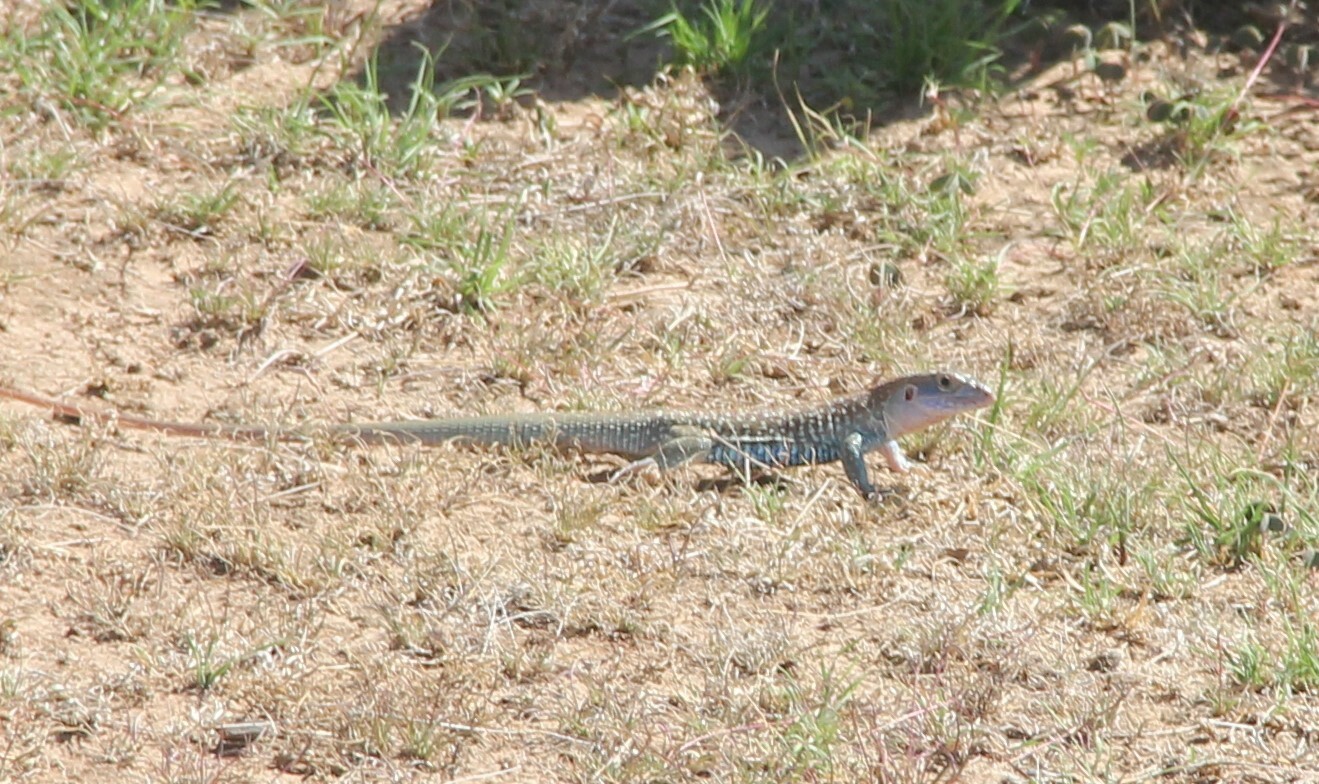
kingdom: Animalia
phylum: Chordata
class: Squamata
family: Teiidae
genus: Aspidoscelis
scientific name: Aspidoscelis gularis
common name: Eastern spotted whiptail
